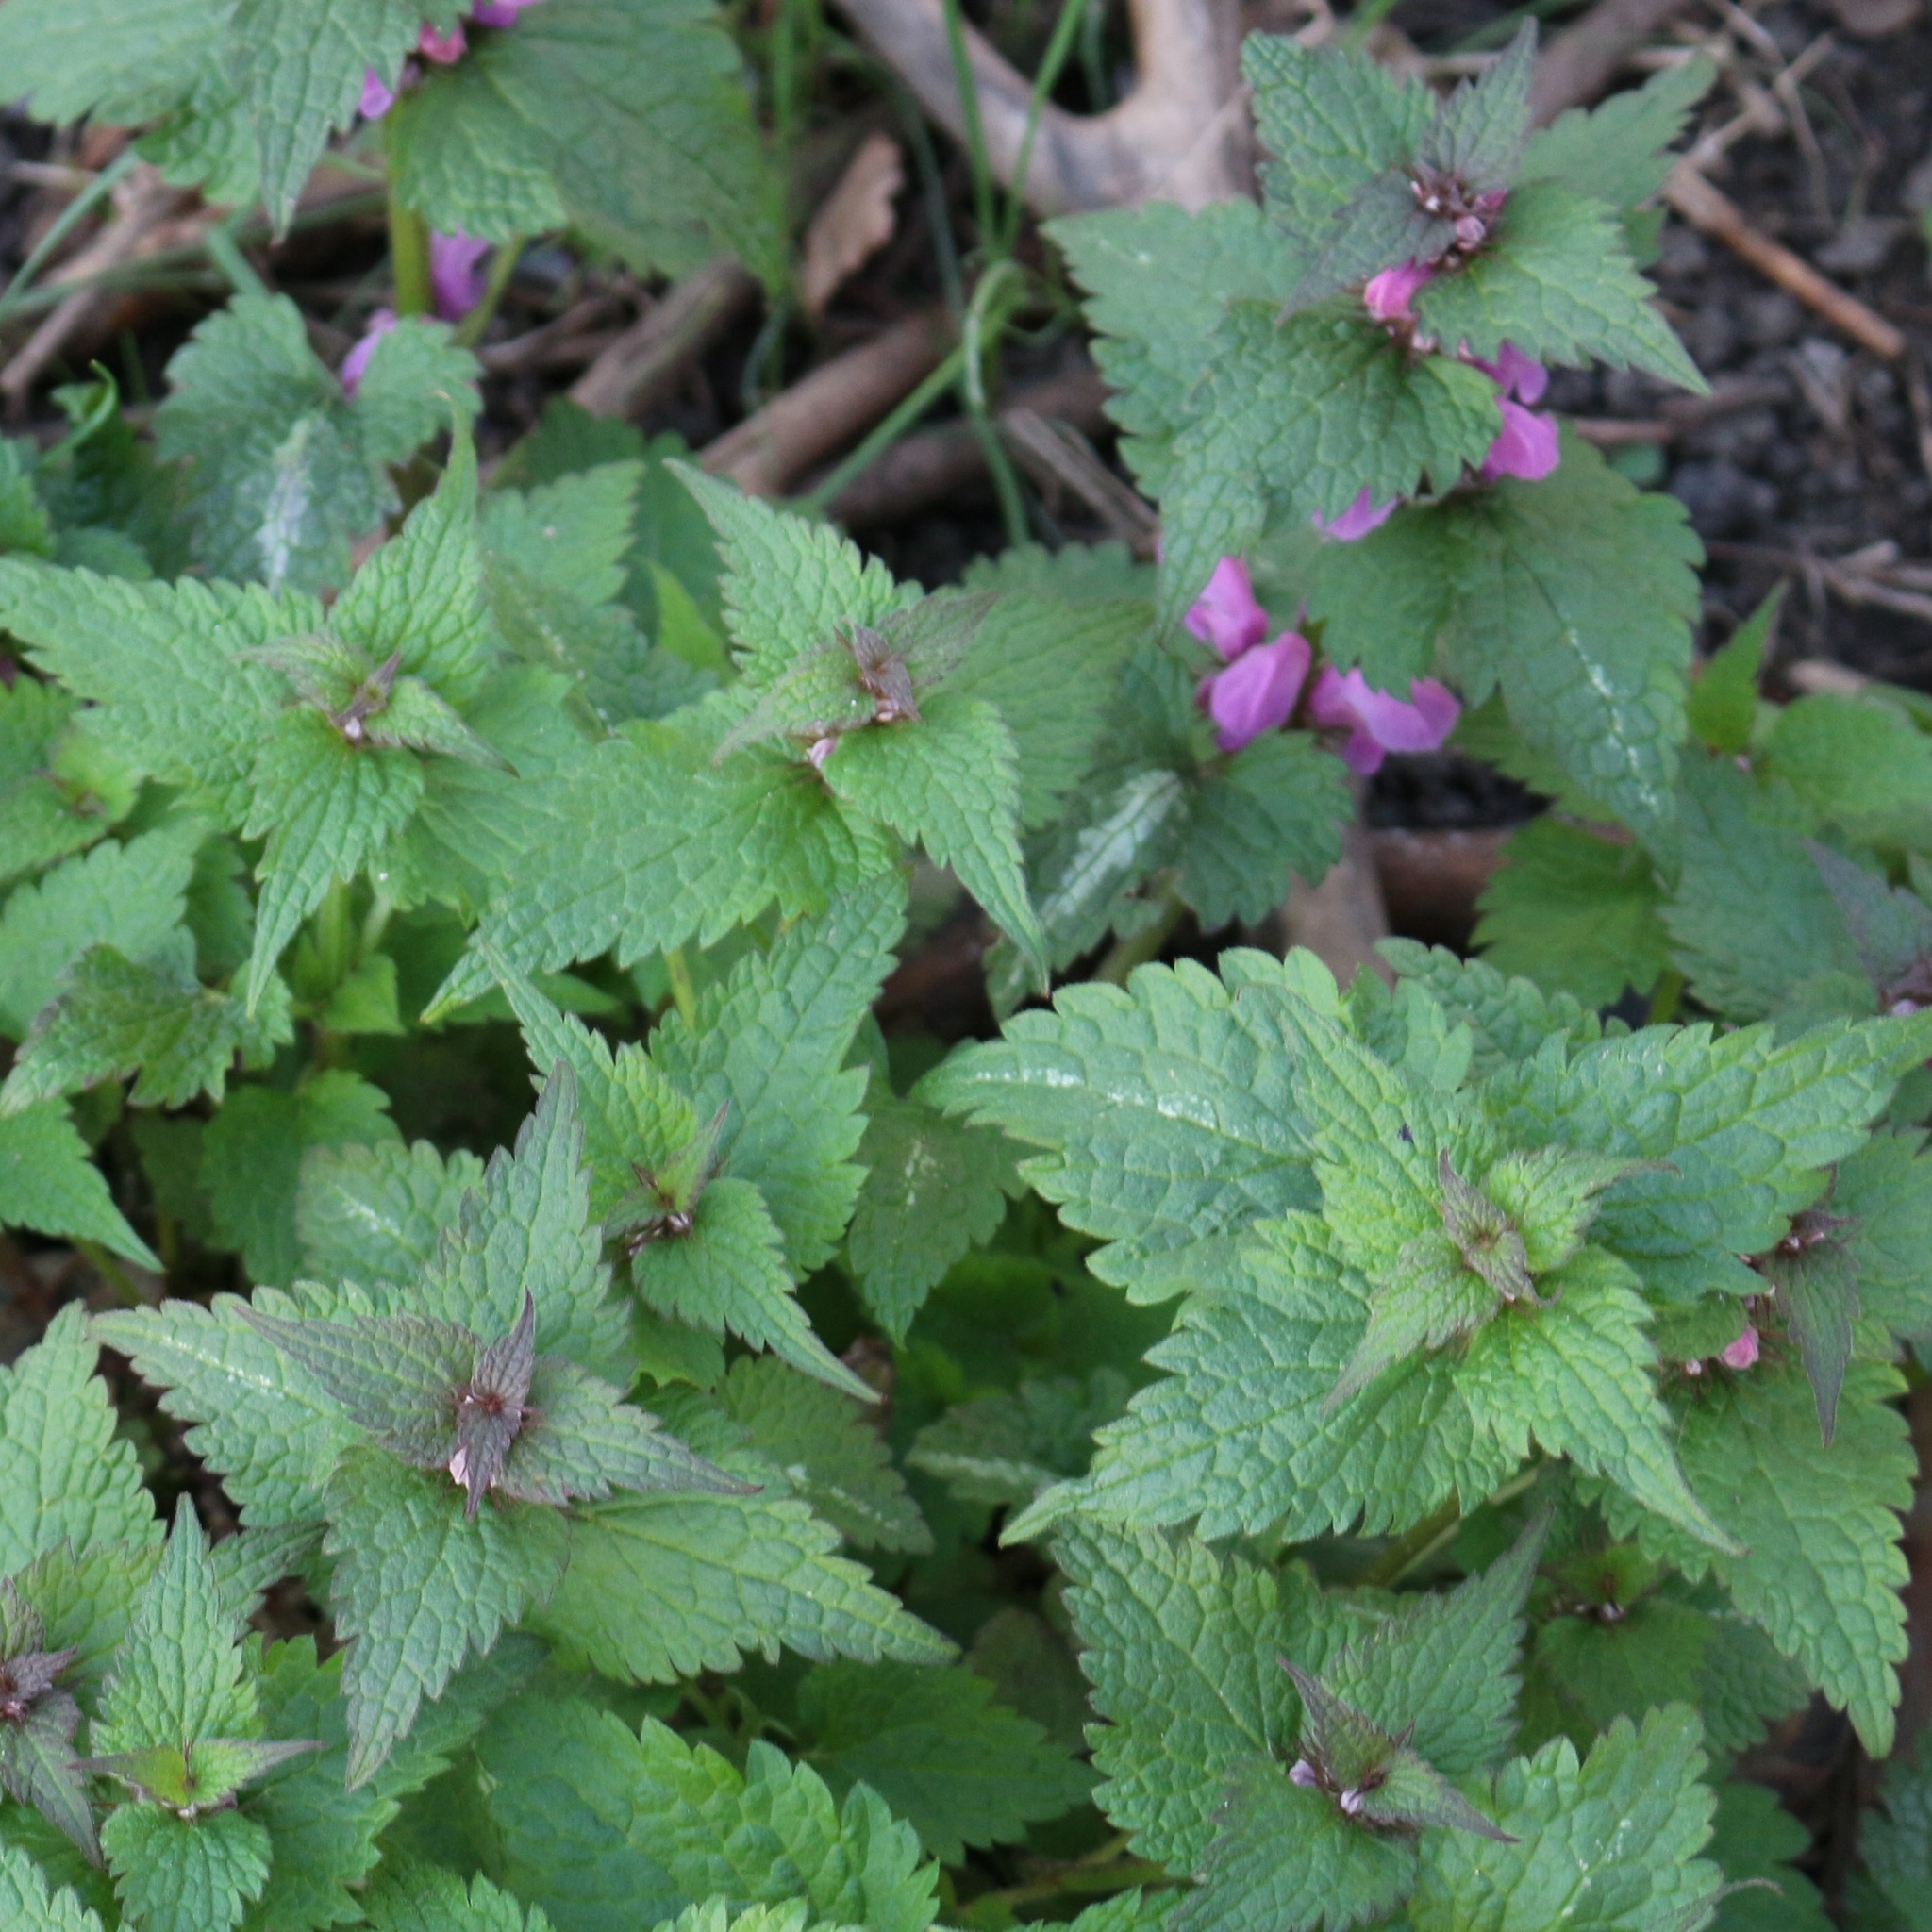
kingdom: Plantae
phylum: Tracheophyta
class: Magnoliopsida
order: Lamiales
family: Lamiaceae
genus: Lamium
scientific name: Lamium maculatum
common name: Spotted dead-nettle
